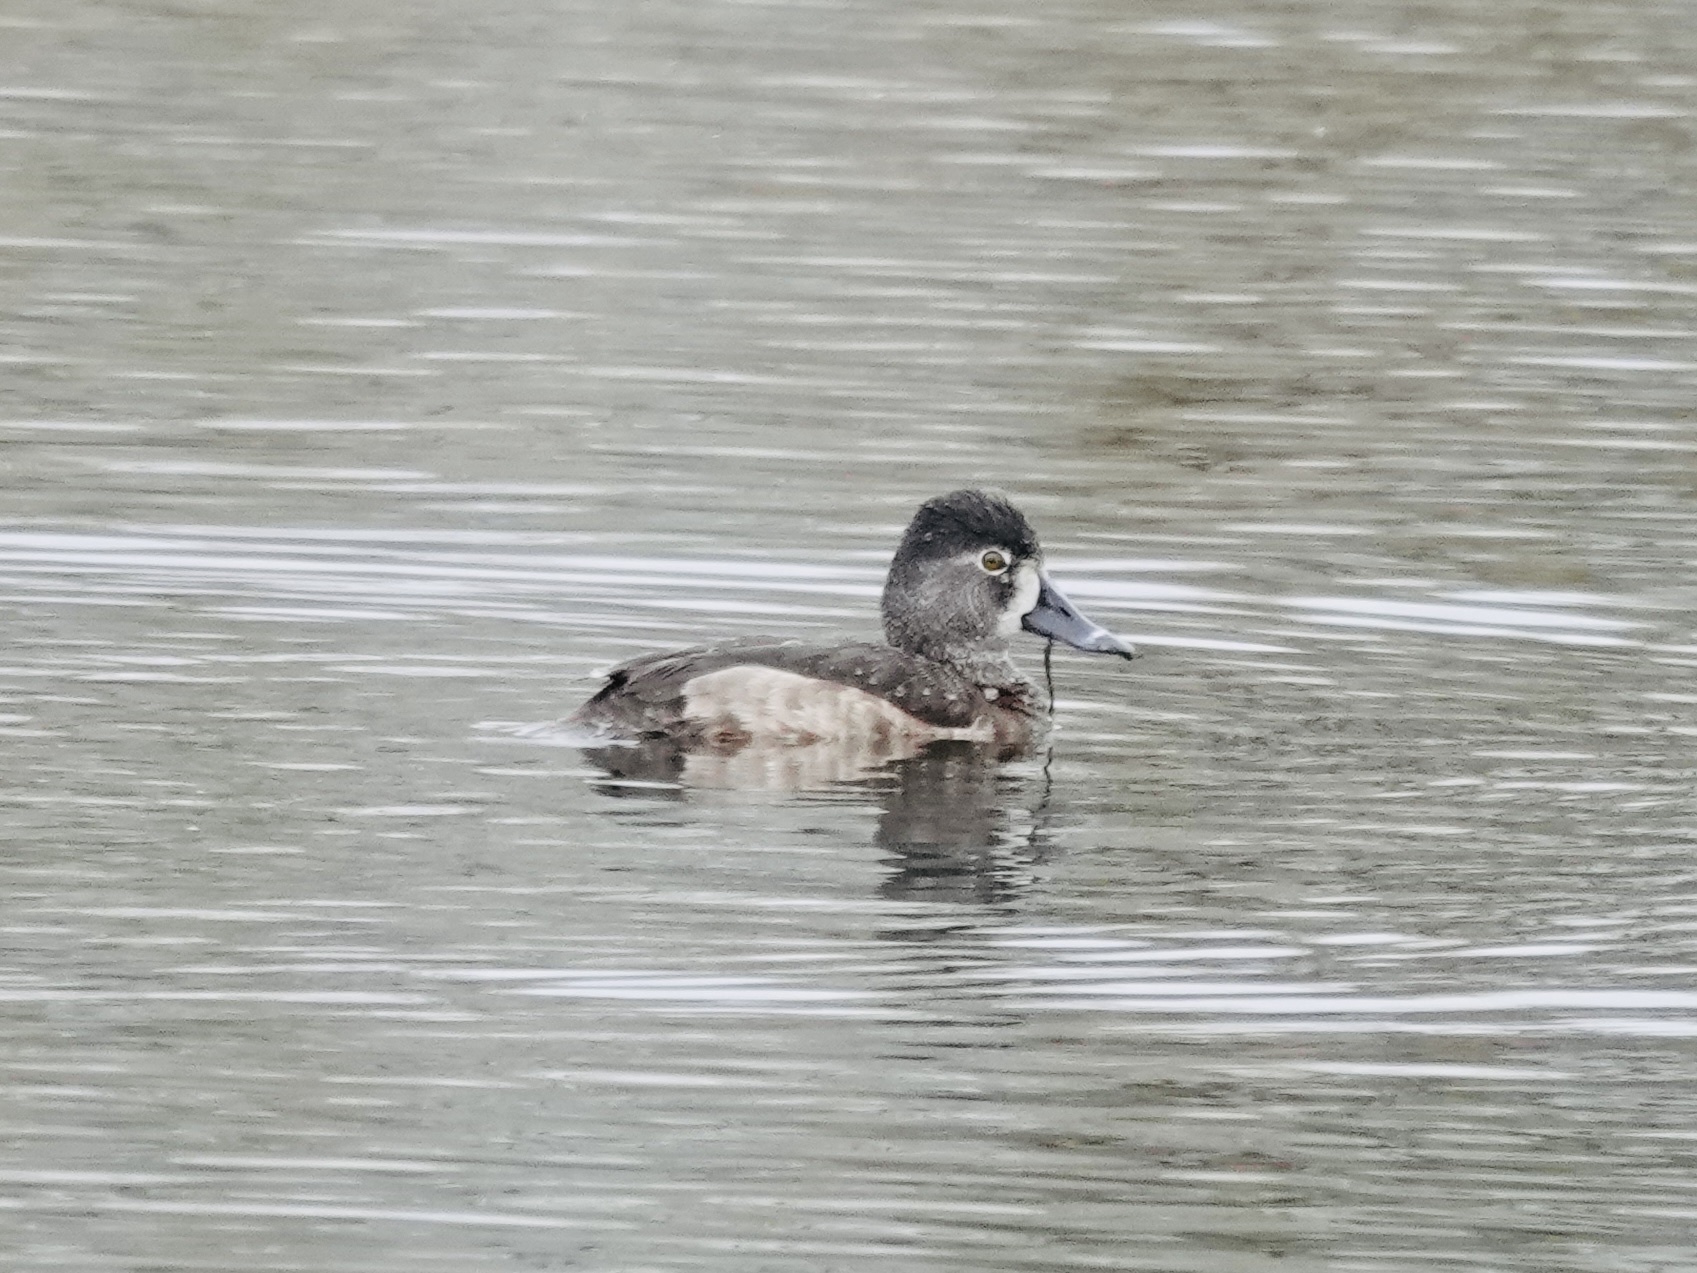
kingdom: Animalia
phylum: Chordata
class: Aves
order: Anseriformes
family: Anatidae
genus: Aythya
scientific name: Aythya collaris
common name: Ring-necked duck
